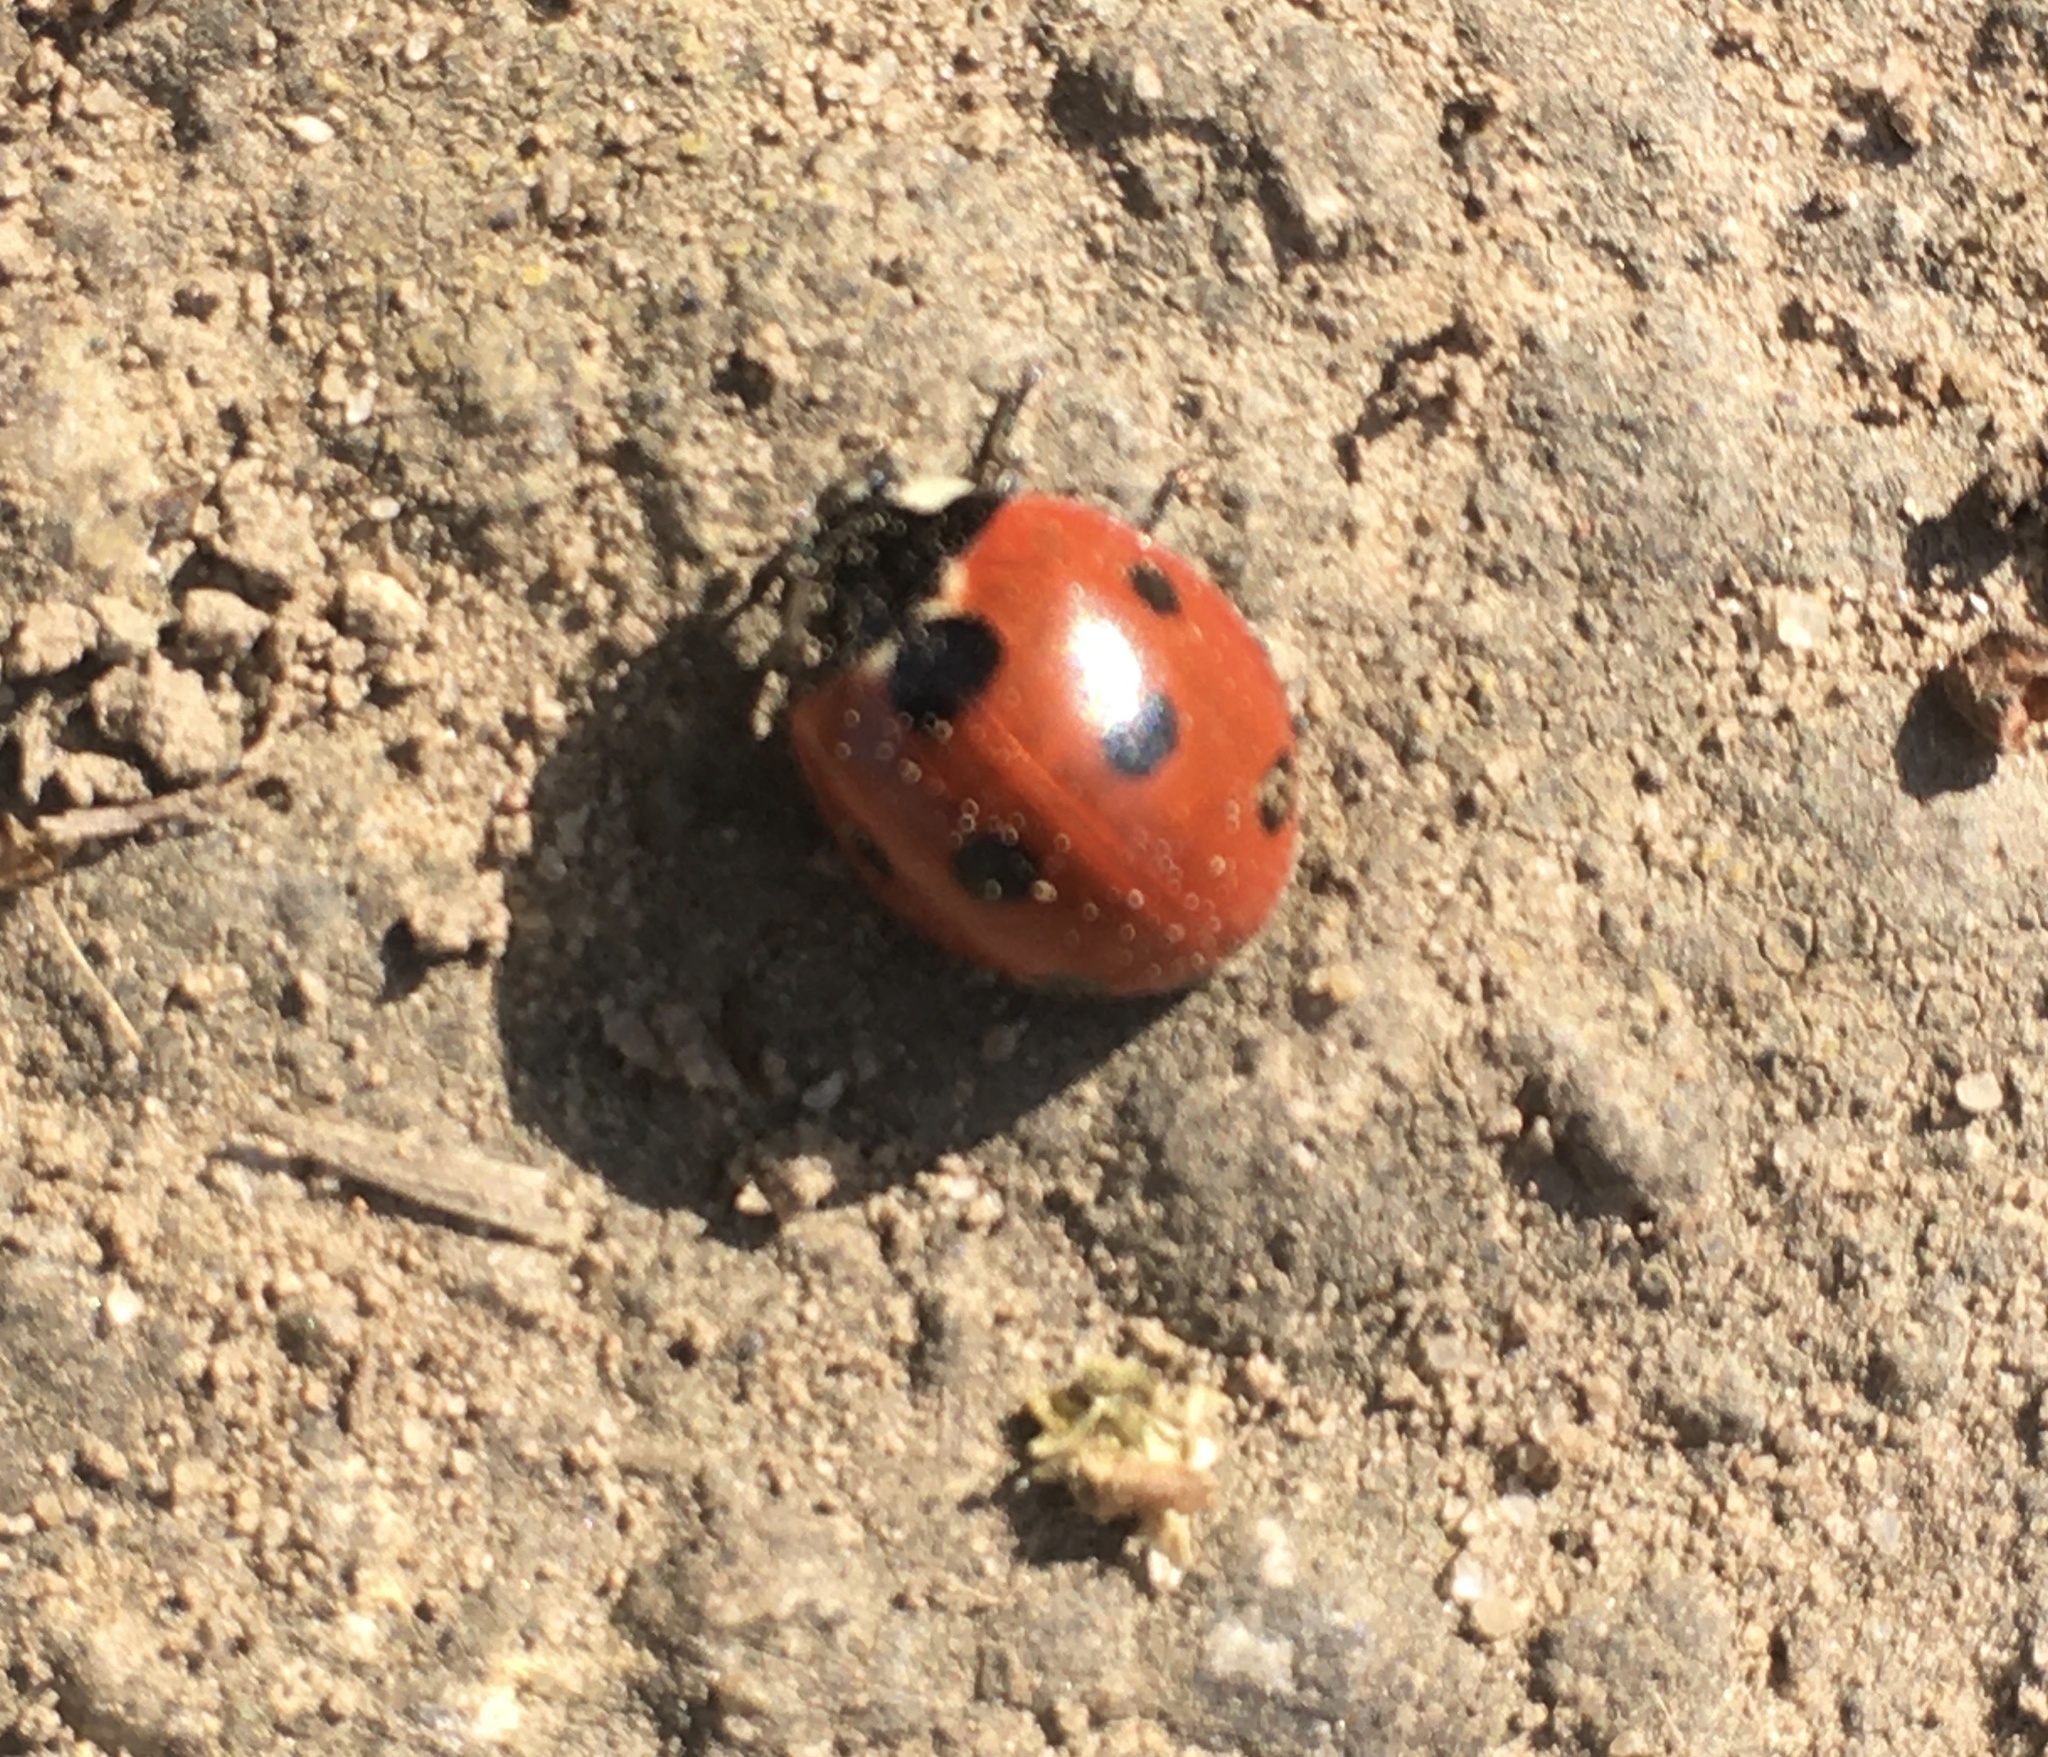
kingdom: Animalia
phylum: Arthropoda
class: Insecta
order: Coleoptera
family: Coccinellidae
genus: Coccinella
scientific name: Coccinella septempunctata
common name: Sevenspotted lady beetle
